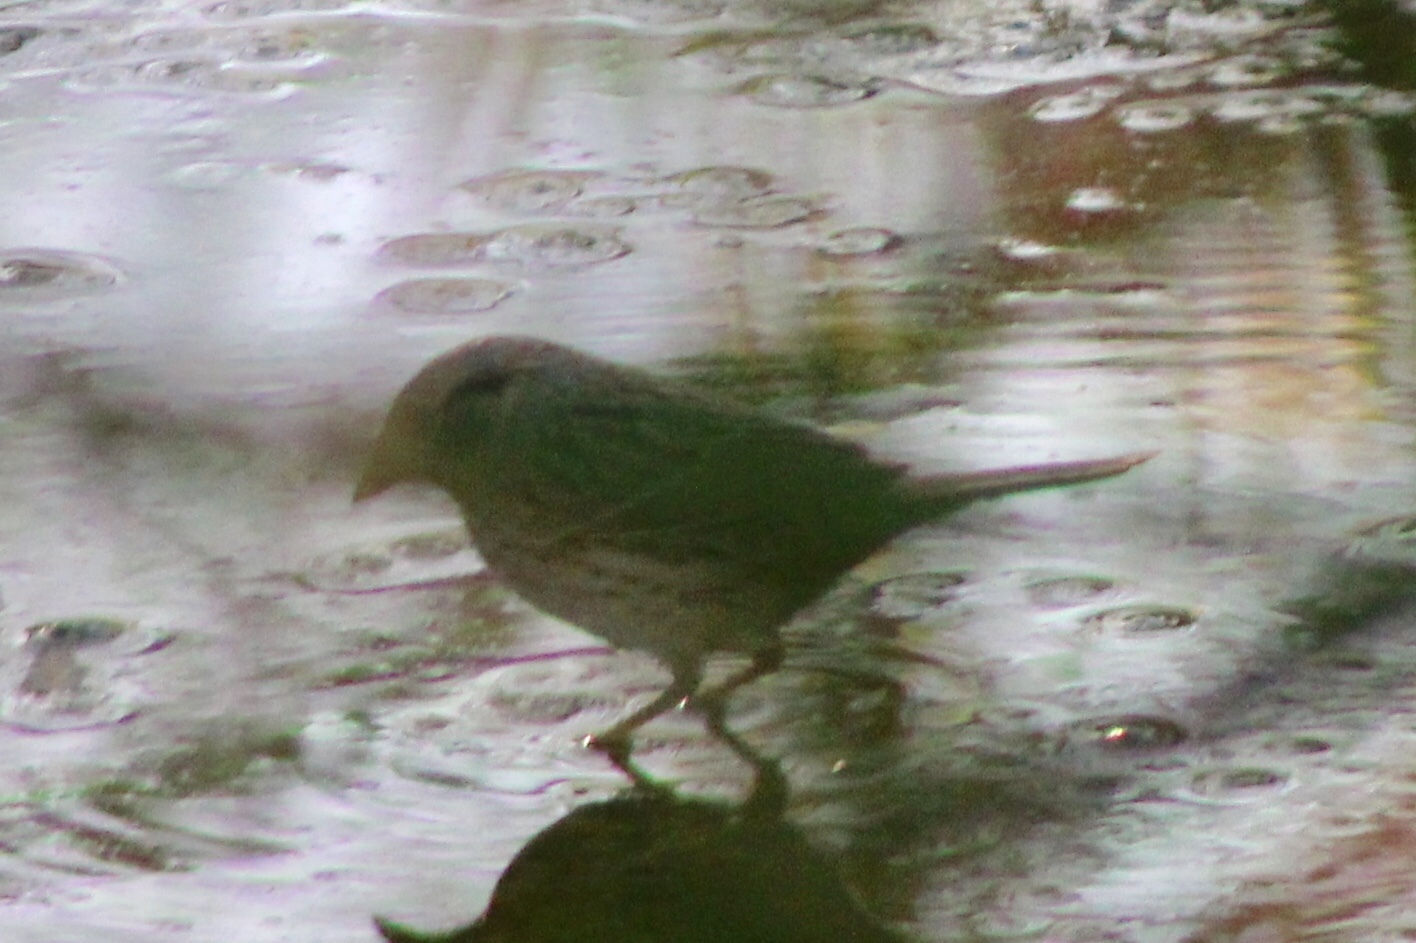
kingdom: Animalia
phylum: Chordata
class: Aves
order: Passeriformes
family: Passerellidae
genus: Melospiza
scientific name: Melospiza lincolnii
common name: Lincoln's sparrow
